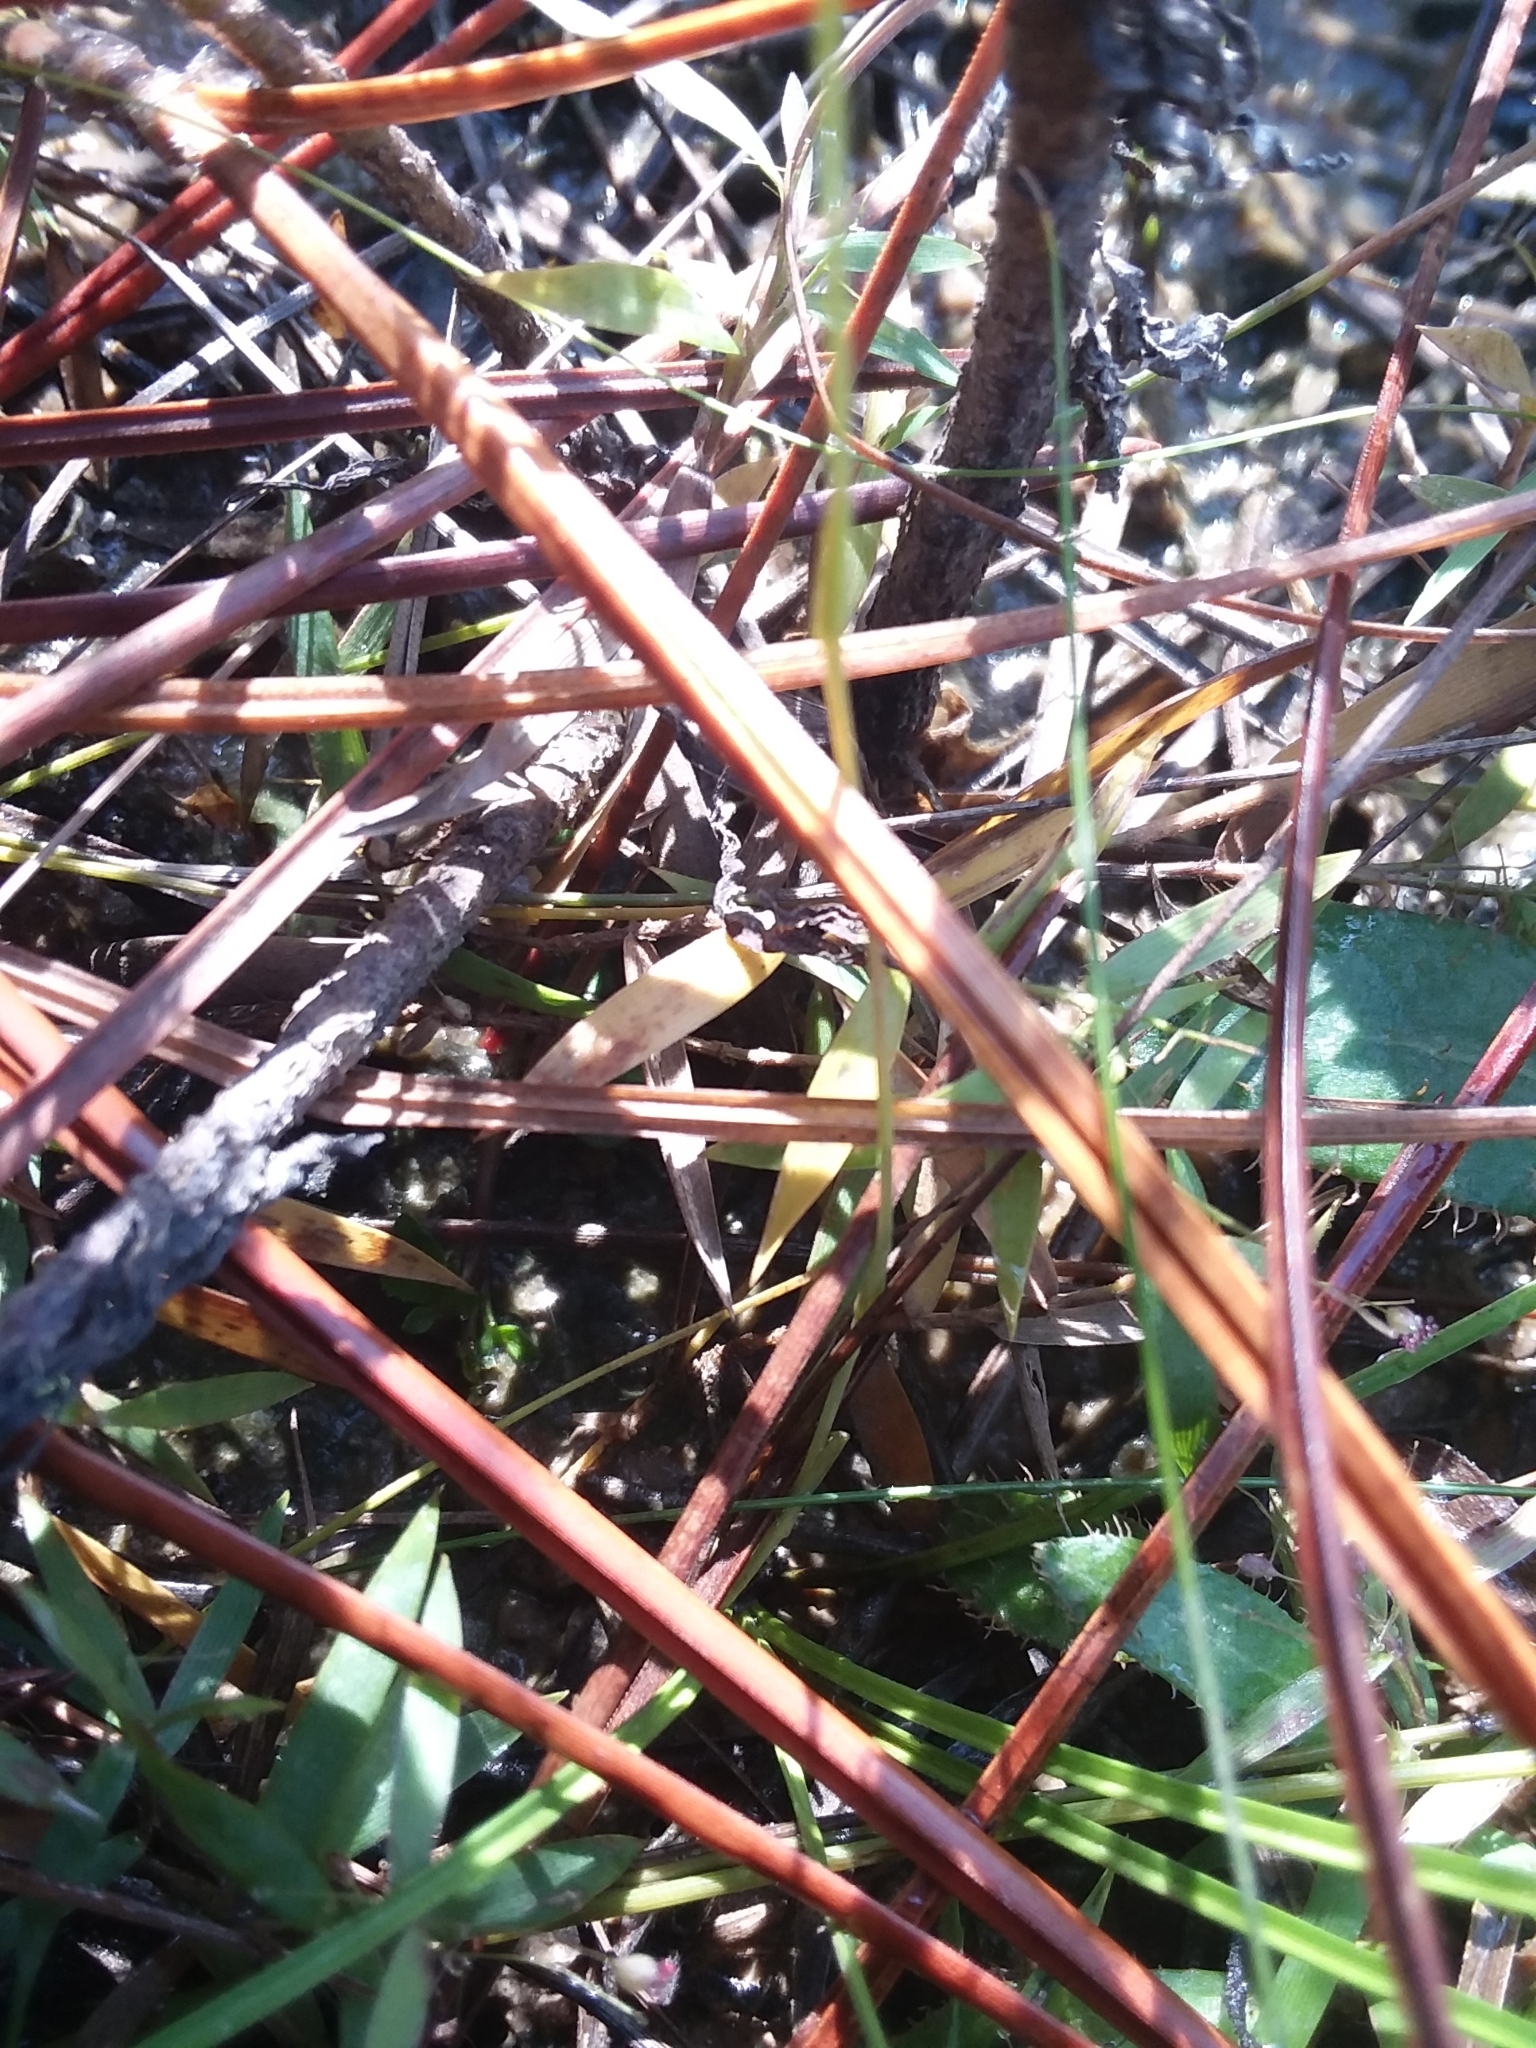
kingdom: Plantae
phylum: Tracheophyta
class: Liliopsida
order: Dioscoreales
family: Burmanniaceae
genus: Burmannia
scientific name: Burmannia capitata
